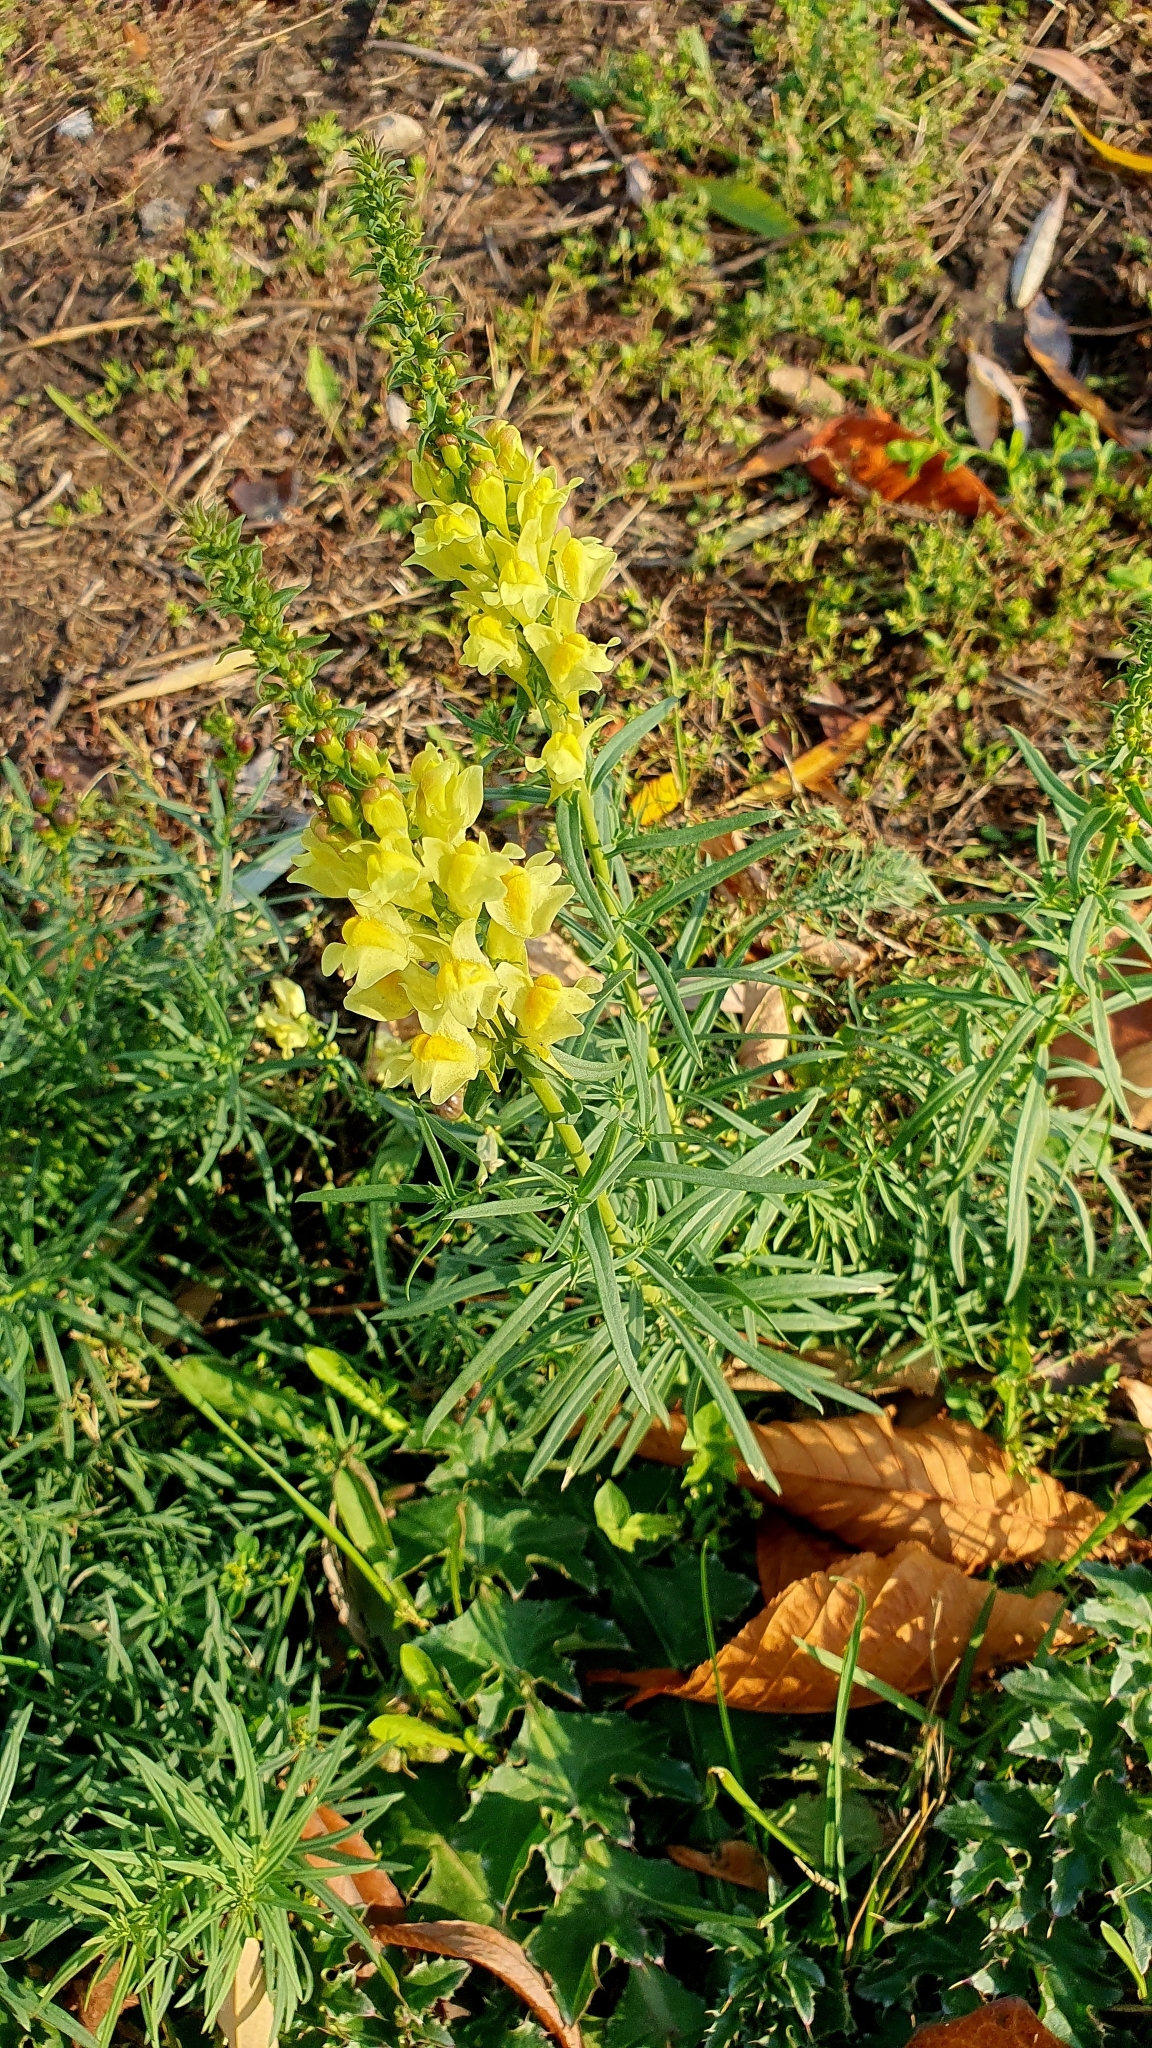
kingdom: Plantae
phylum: Tracheophyta
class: Magnoliopsida
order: Lamiales
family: Plantaginaceae
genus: Linaria
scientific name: Linaria vulgaris
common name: Butter and eggs
